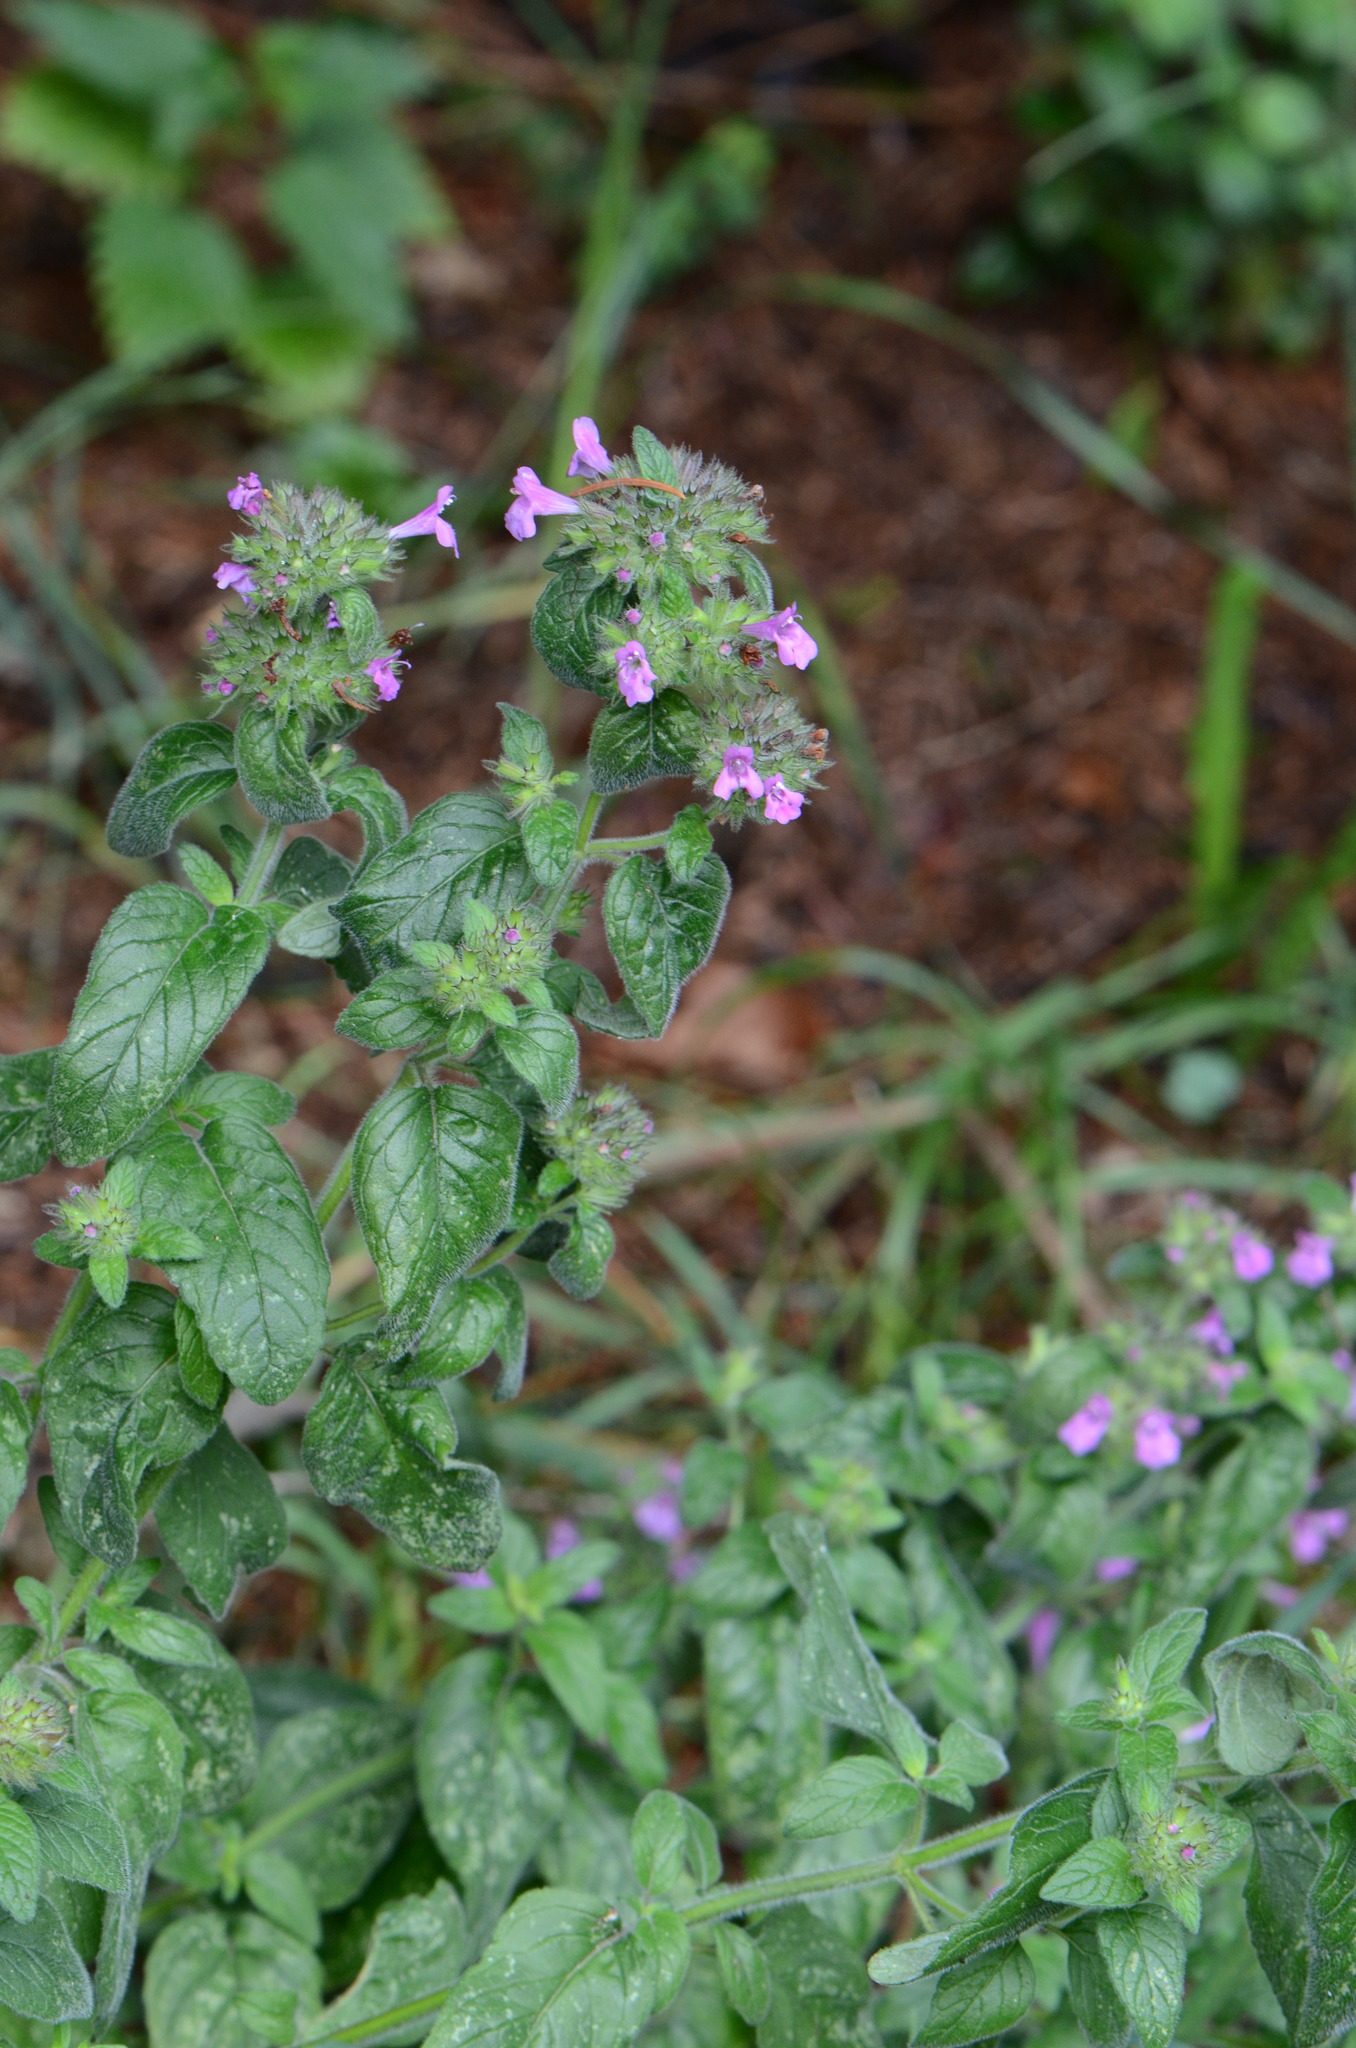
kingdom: Plantae
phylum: Tracheophyta
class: Magnoliopsida
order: Lamiales
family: Lamiaceae
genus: Clinopodium
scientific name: Clinopodium vulgare
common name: Wild basil
